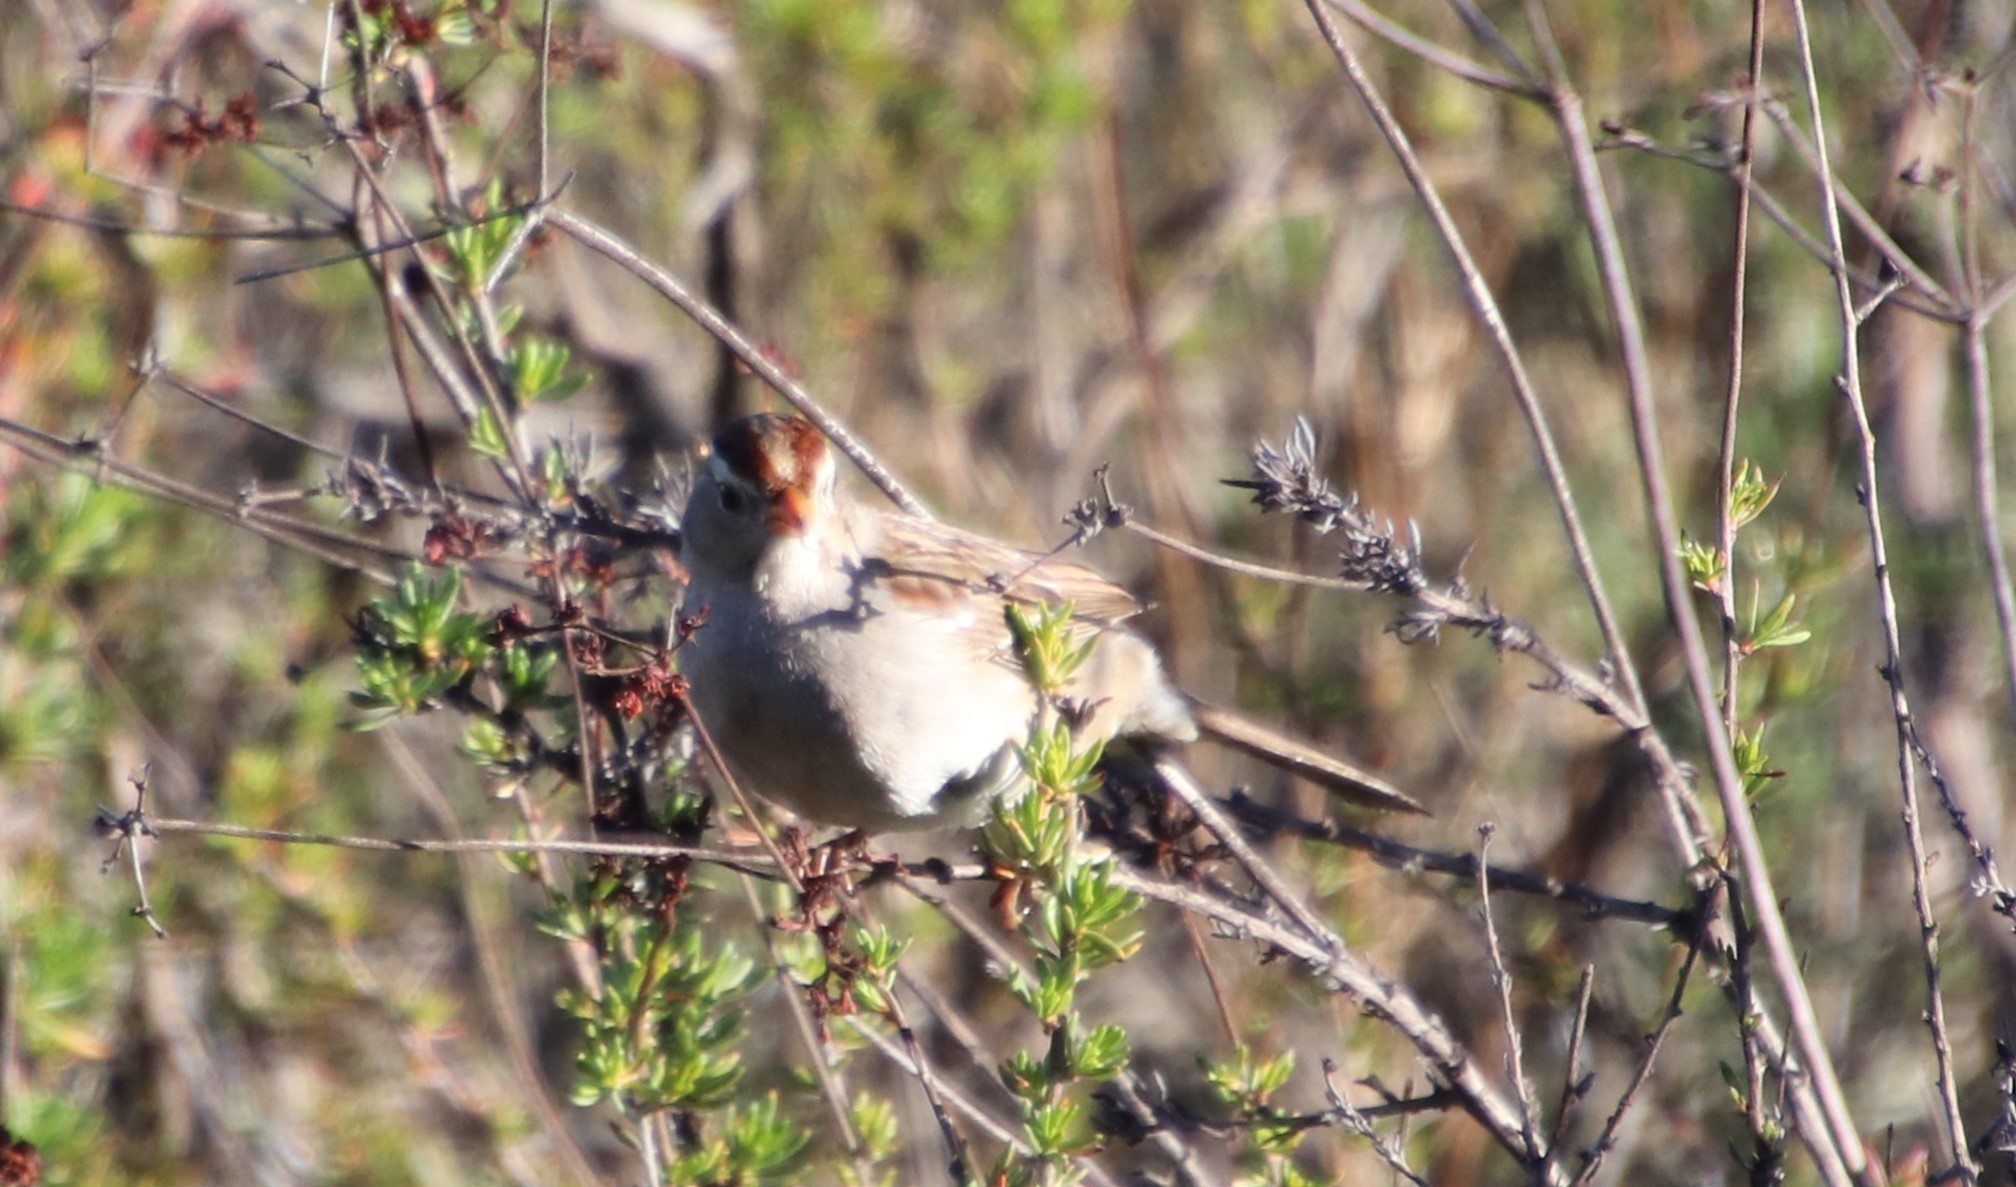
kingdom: Animalia
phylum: Chordata
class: Aves
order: Passeriformes
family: Passerellidae
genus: Zonotrichia
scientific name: Zonotrichia leucophrys
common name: White-crowned sparrow
